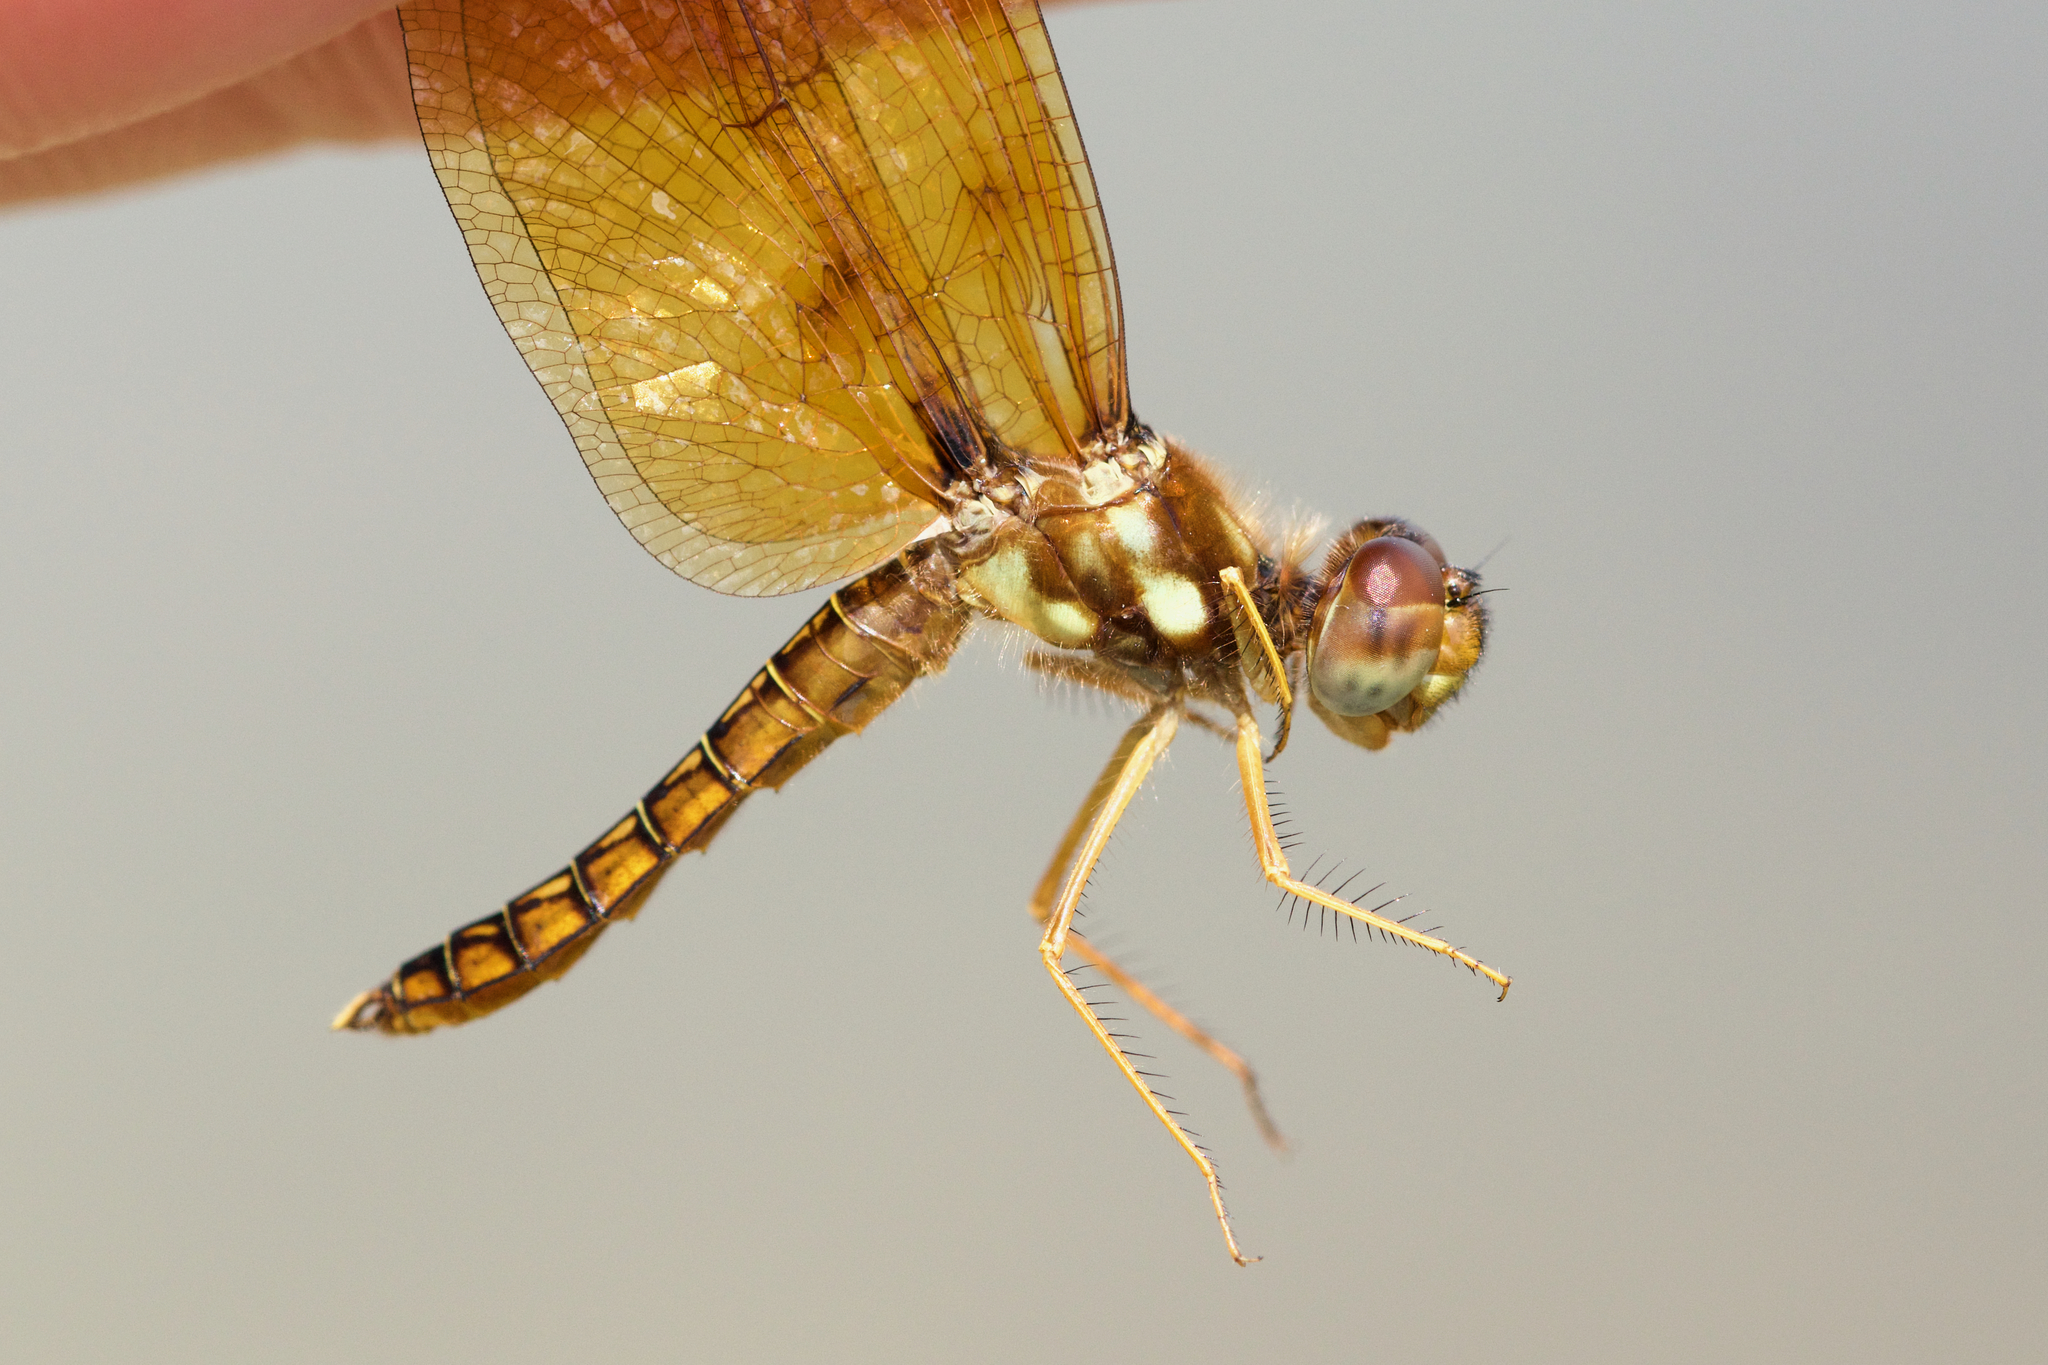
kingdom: Animalia
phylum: Arthropoda
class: Insecta
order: Odonata
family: Libellulidae
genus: Perithemis
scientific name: Perithemis tenera
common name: Eastern amberwing
